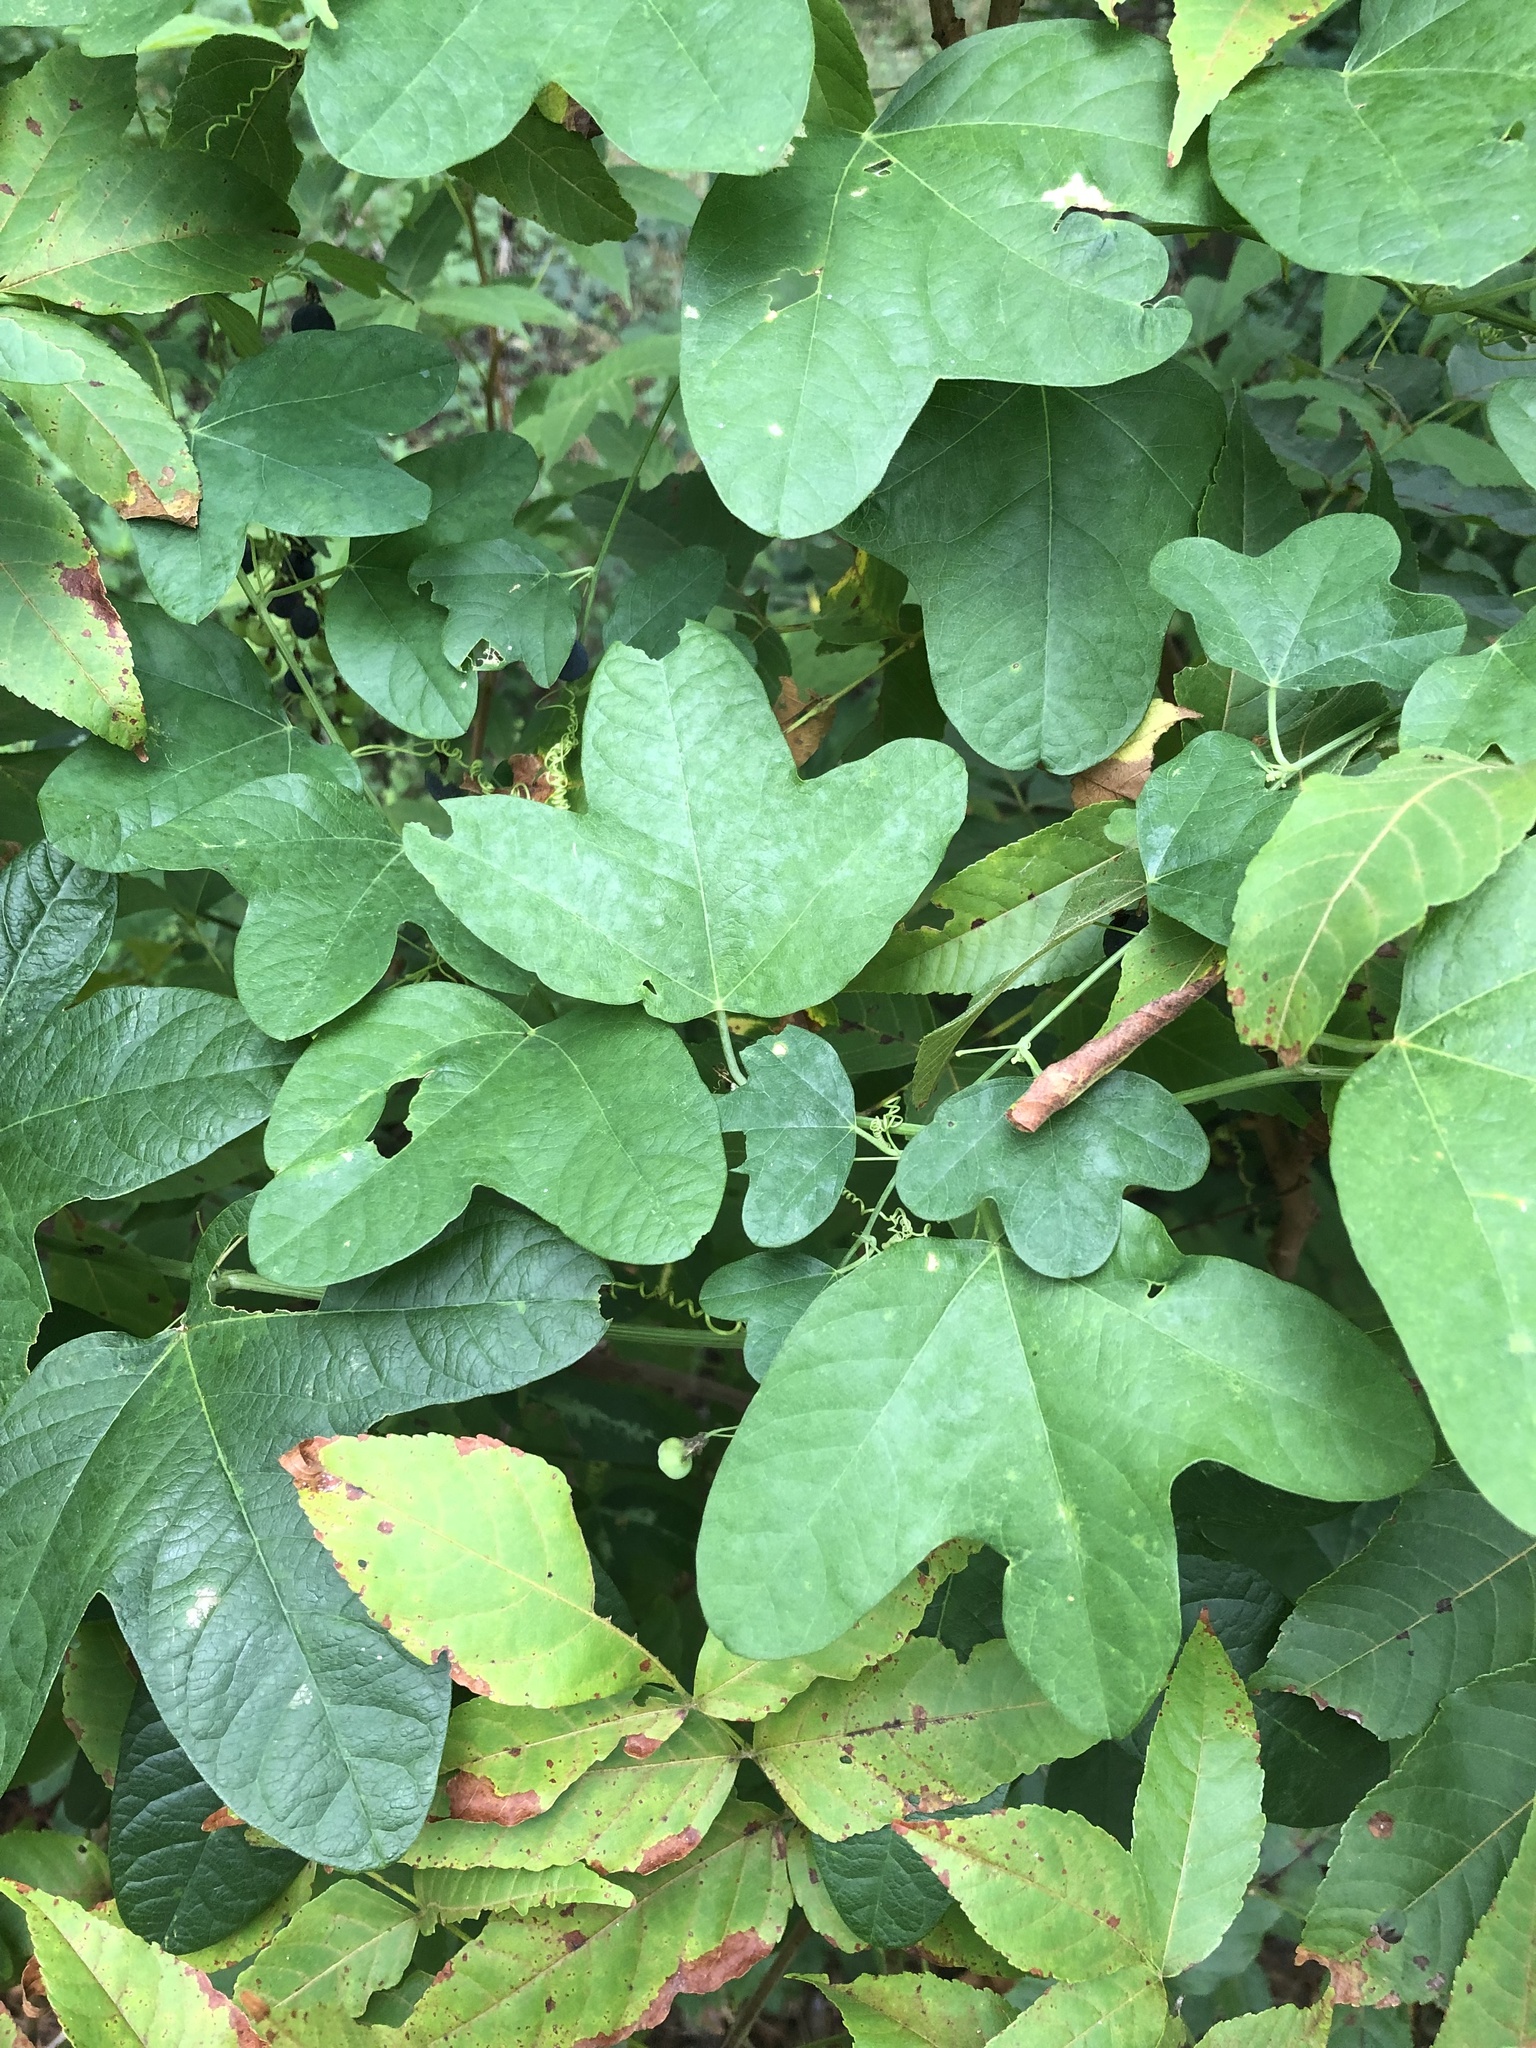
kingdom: Plantae
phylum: Tracheophyta
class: Magnoliopsida
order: Malpighiales
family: Passifloraceae
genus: Passiflora
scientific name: Passiflora lutea
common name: Yellow passionflower
